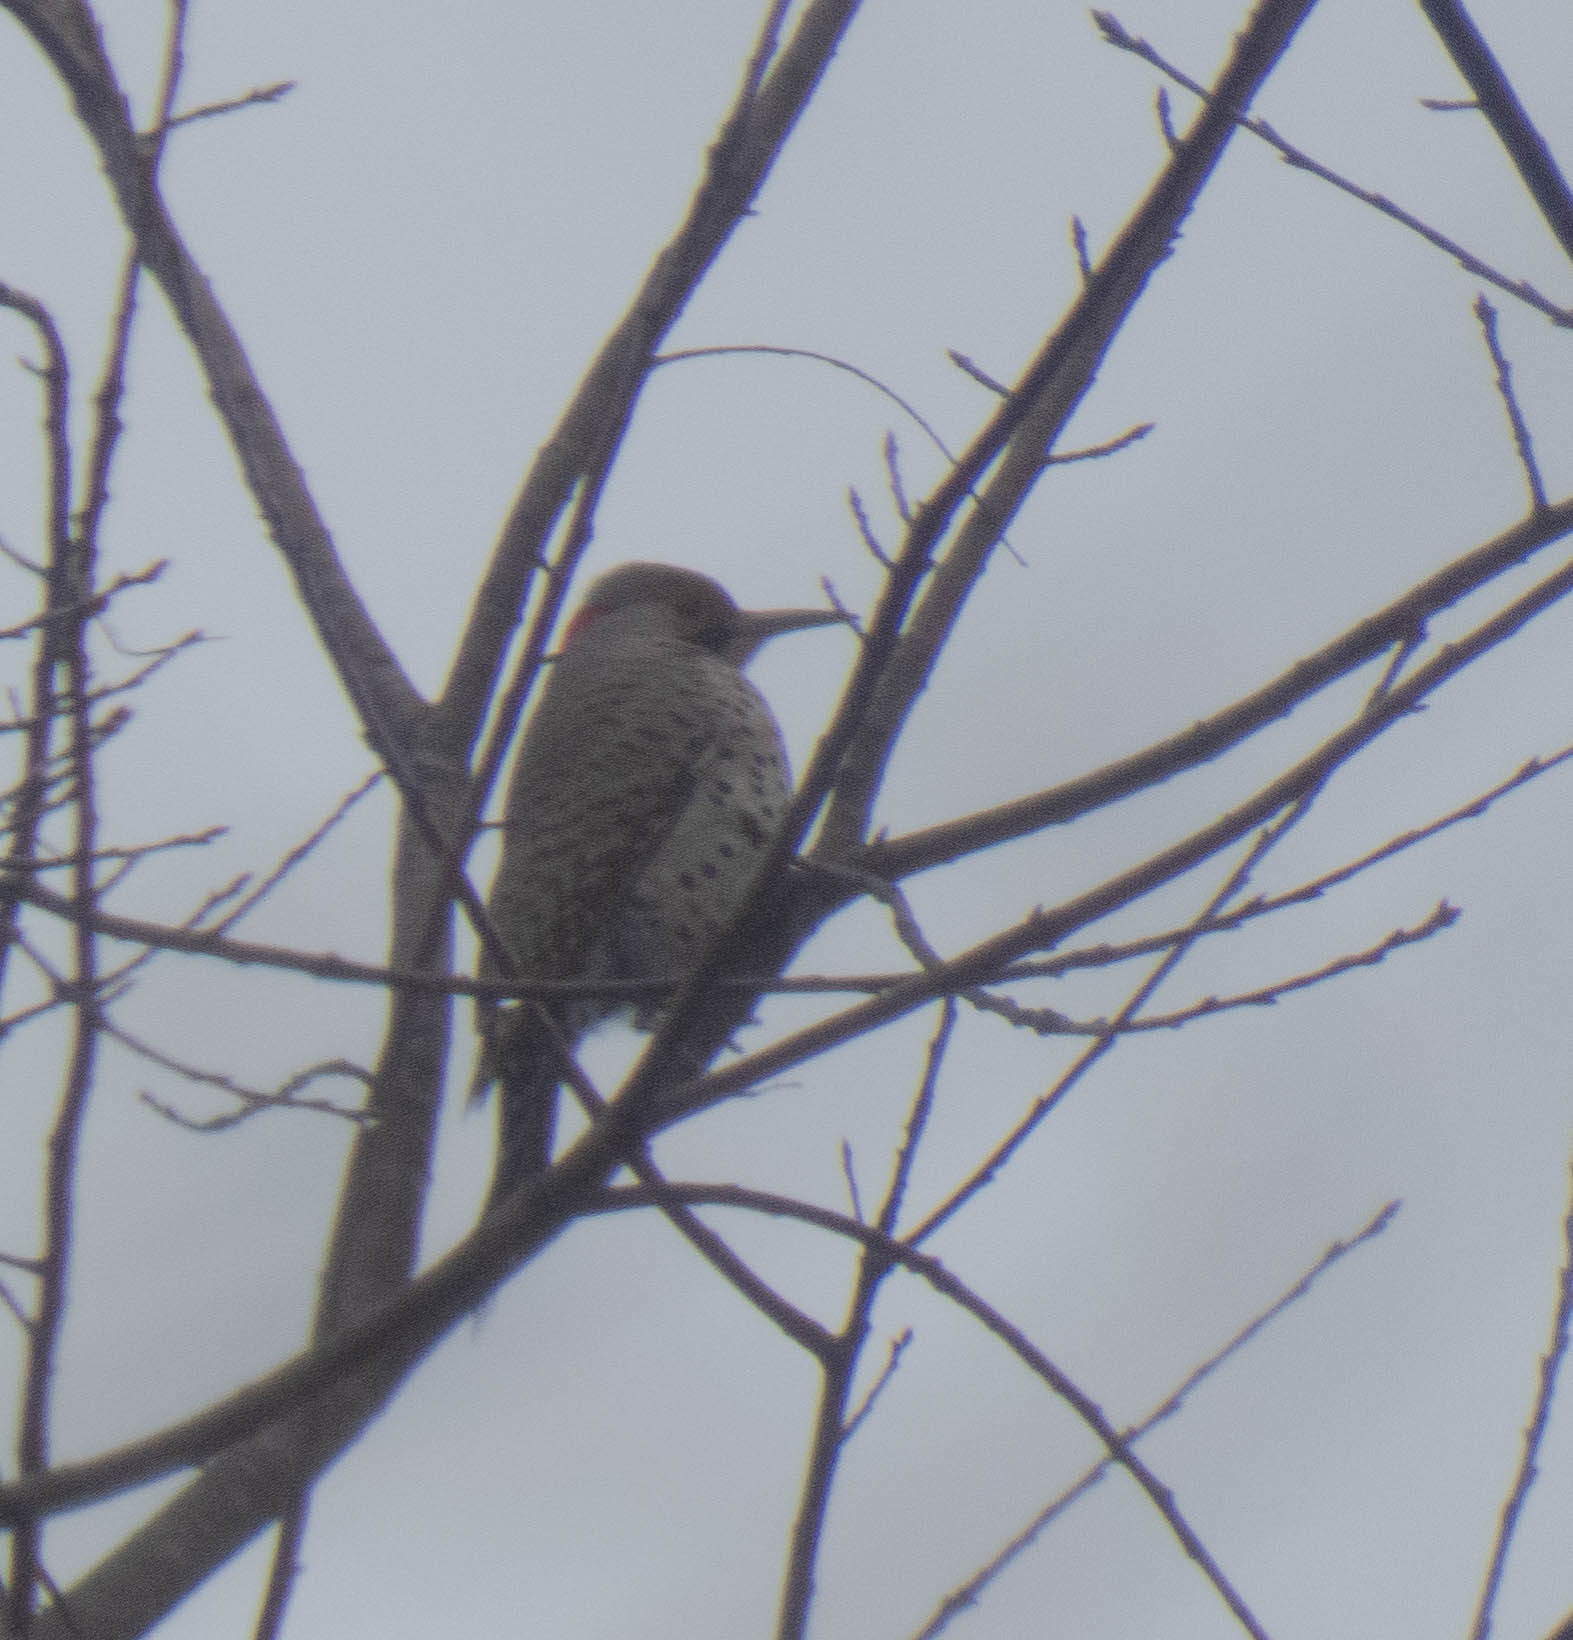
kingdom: Animalia
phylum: Chordata
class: Aves
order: Piciformes
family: Picidae
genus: Colaptes
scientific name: Colaptes auratus
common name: Northern flicker
